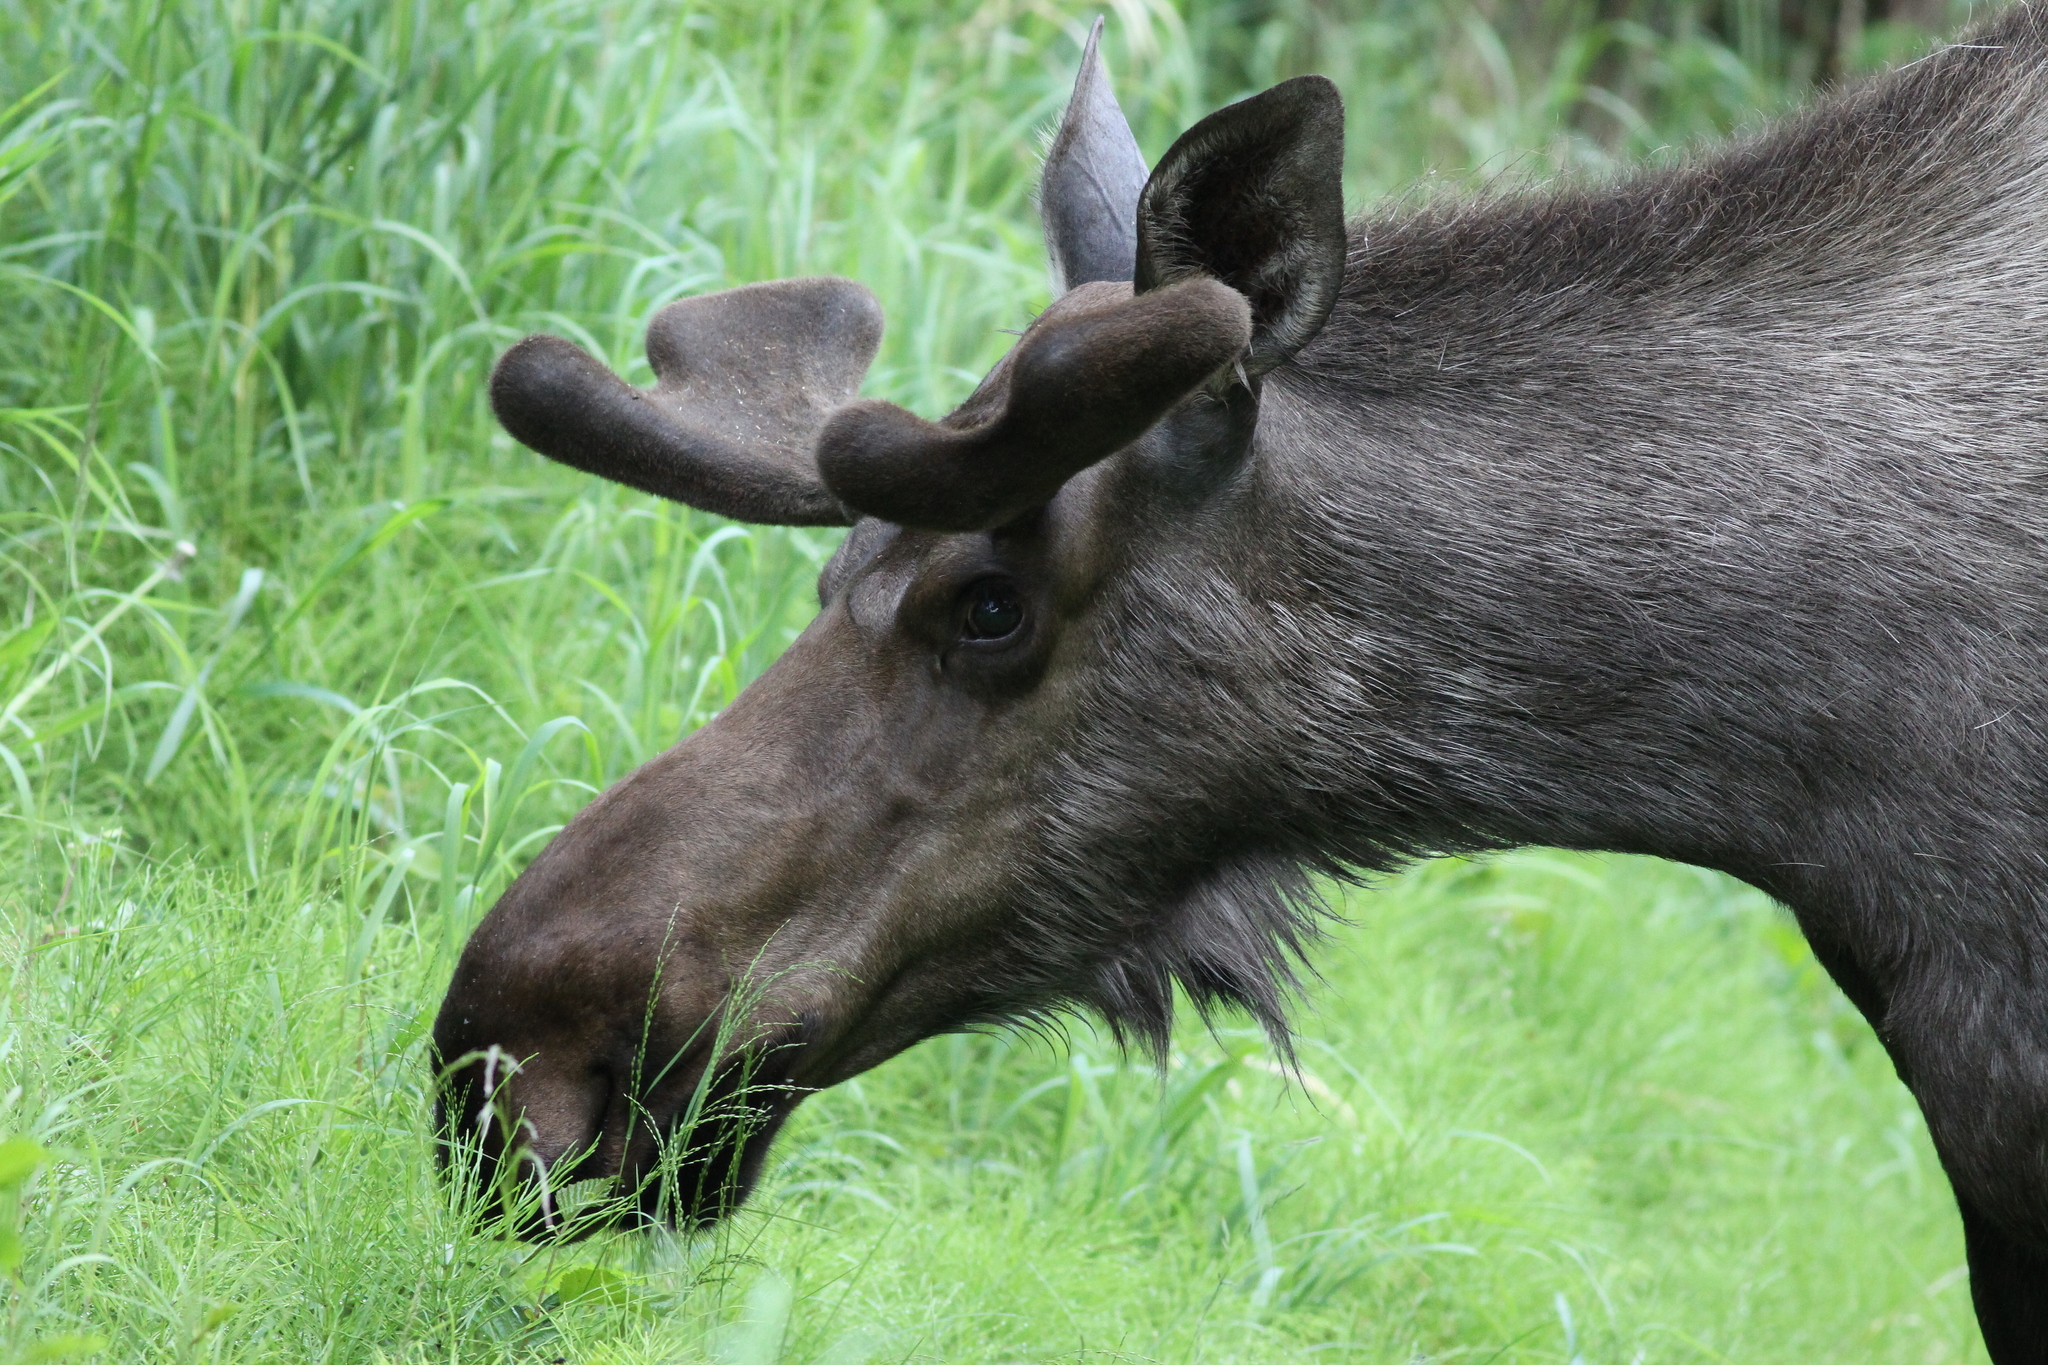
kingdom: Animalia
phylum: Chordata
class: Mammalia
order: Artiodactyla
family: Cervidae
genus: Alces
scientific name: Alces alces
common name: Moose
